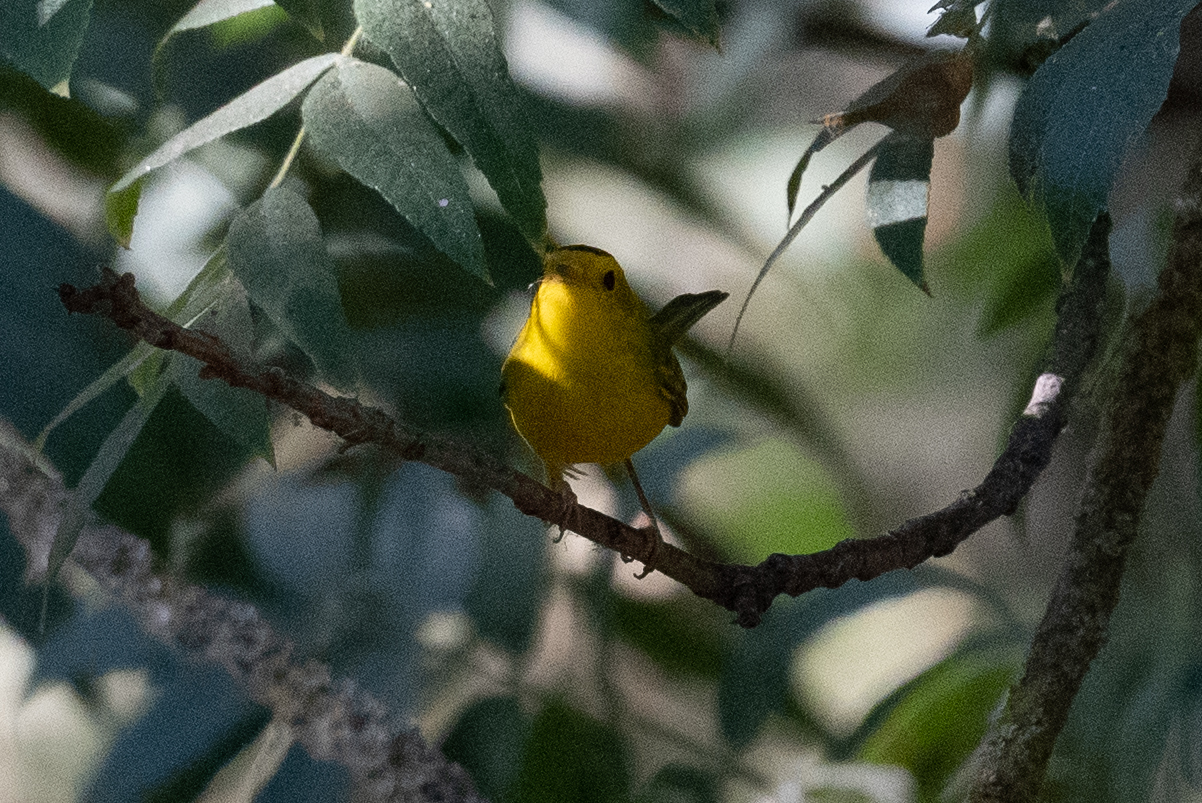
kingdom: Animalia
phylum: Chordata
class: Aves
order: Passeriformes
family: Parulidae
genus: Cardellina
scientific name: Cardellina pusilla
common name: Wilson's warbler
